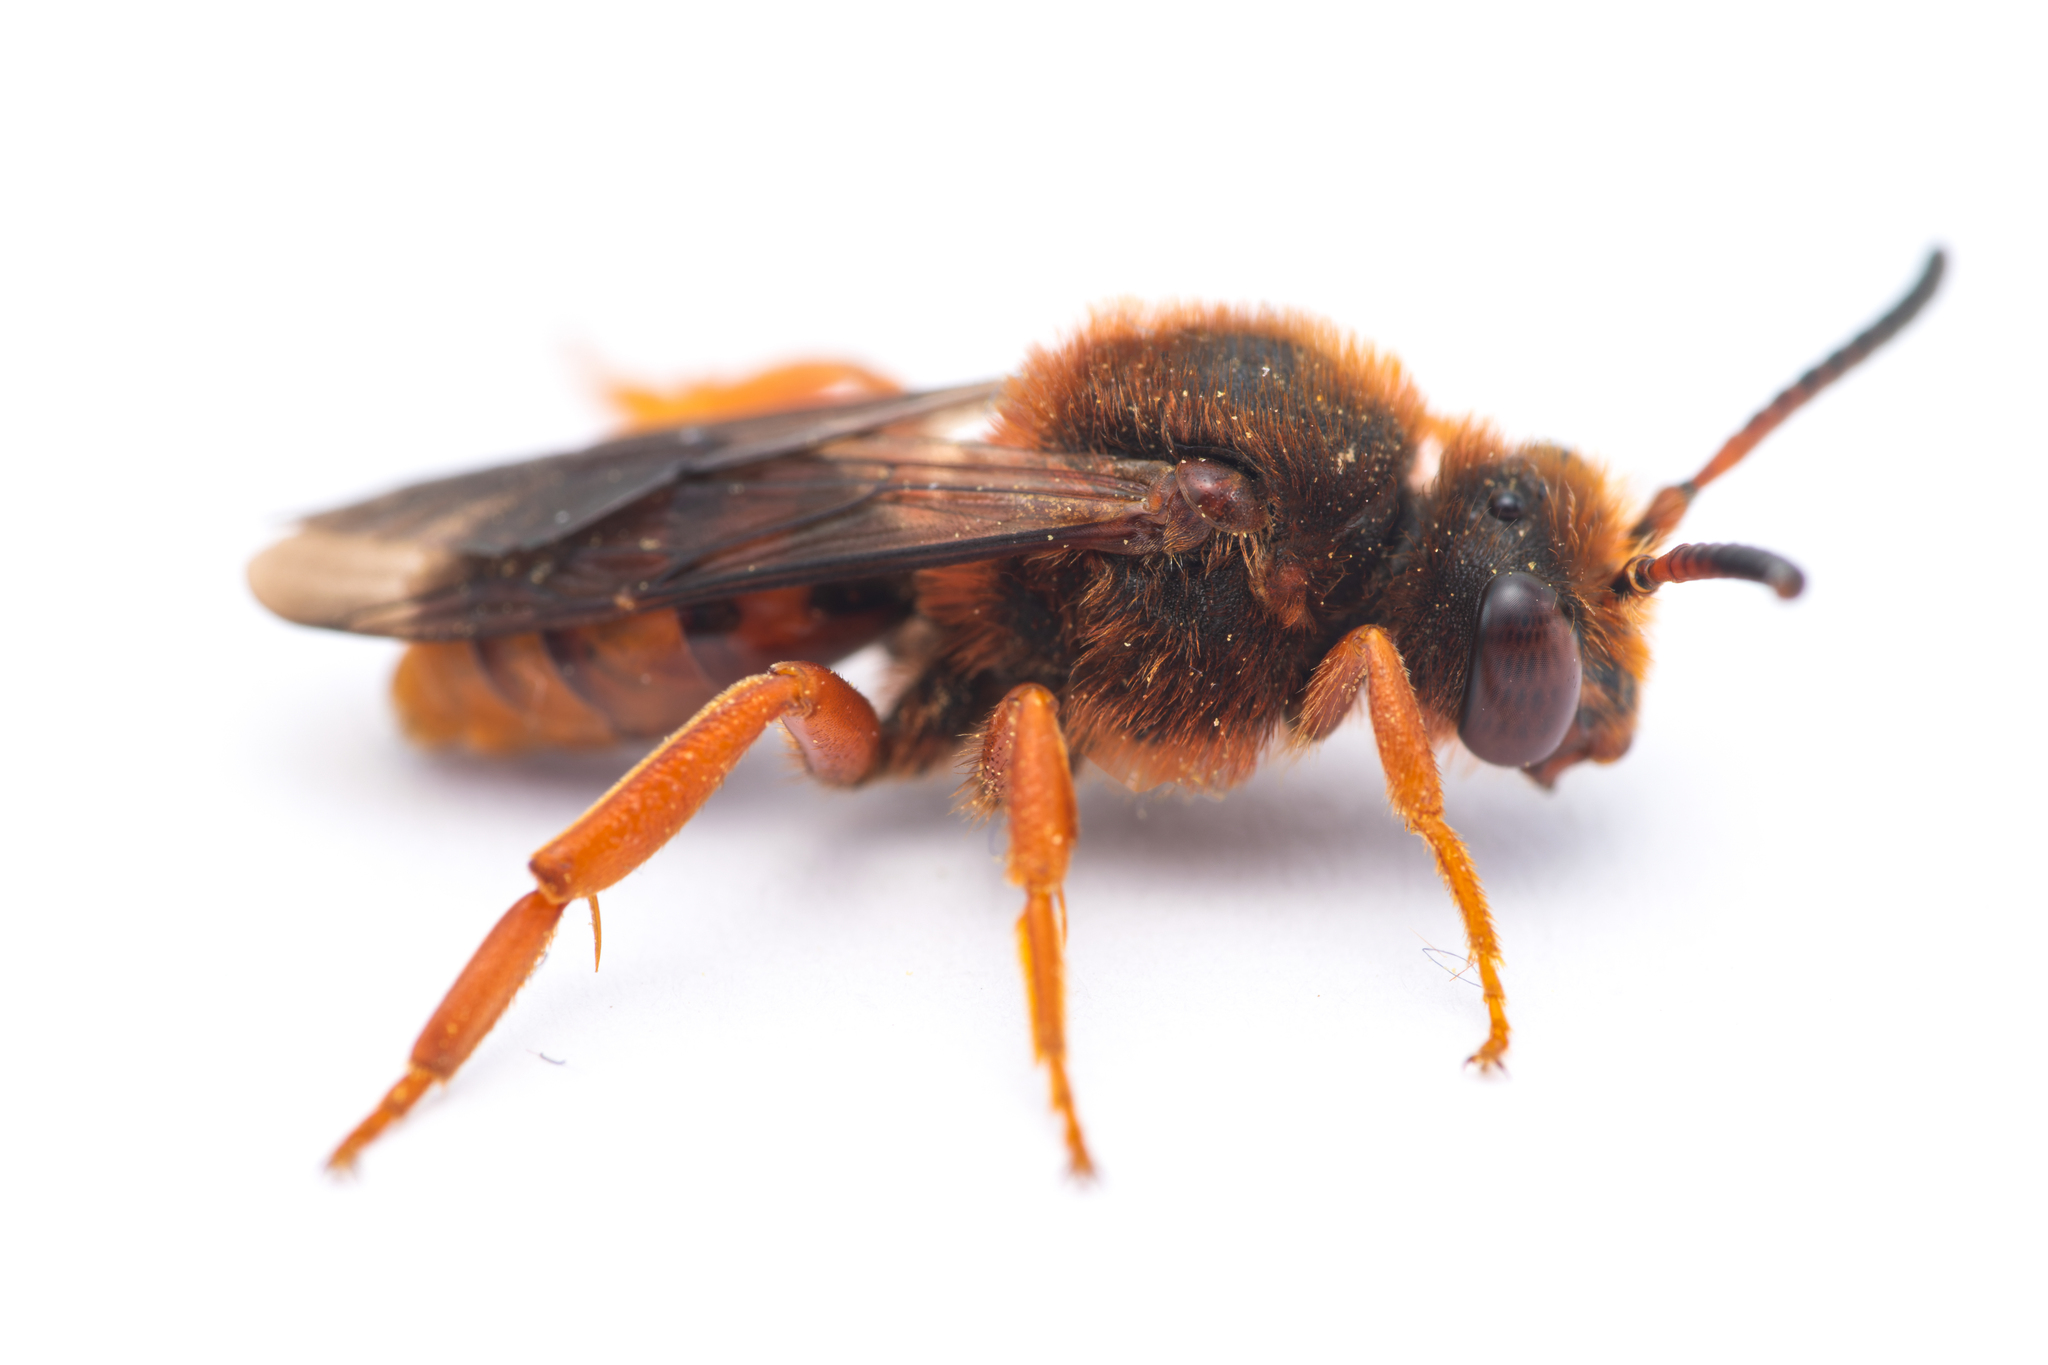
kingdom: Animalia
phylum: Arthropoda
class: Insecta
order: Hymenoptera
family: Apidae
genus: Nomada
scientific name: Nomada agrestis
